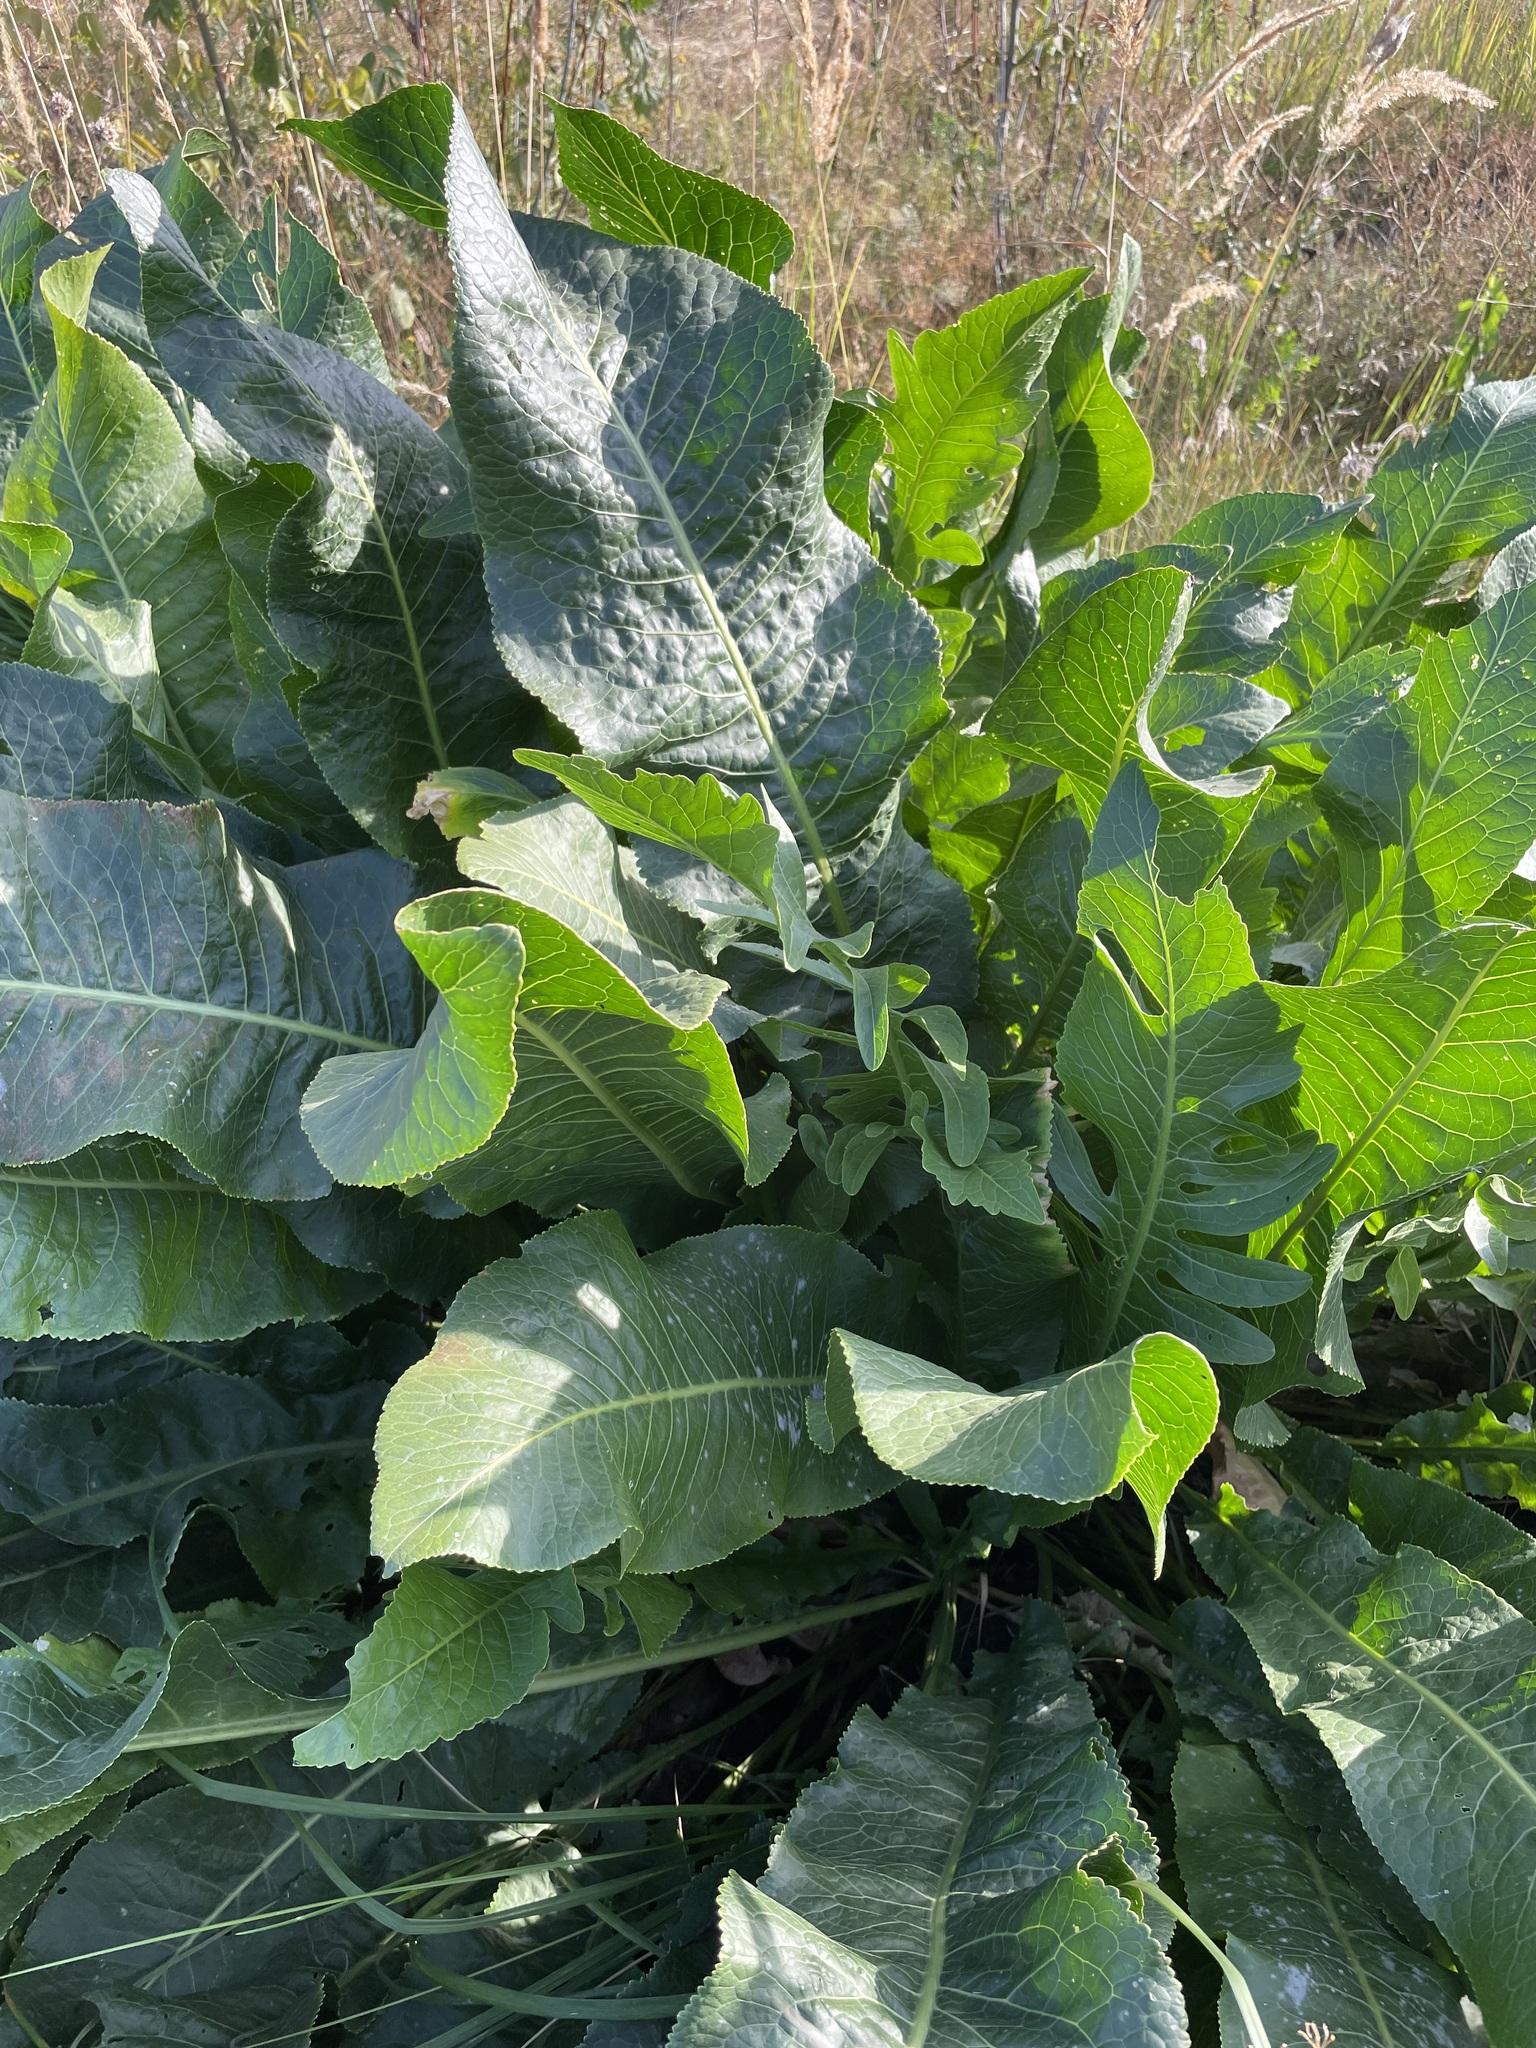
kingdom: Plantae
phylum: Tracheophyta
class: Magnoliopsida
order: Brassicales
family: Brassicaceae
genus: Armoracia
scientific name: Armoracia rusticana
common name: Horseradish
